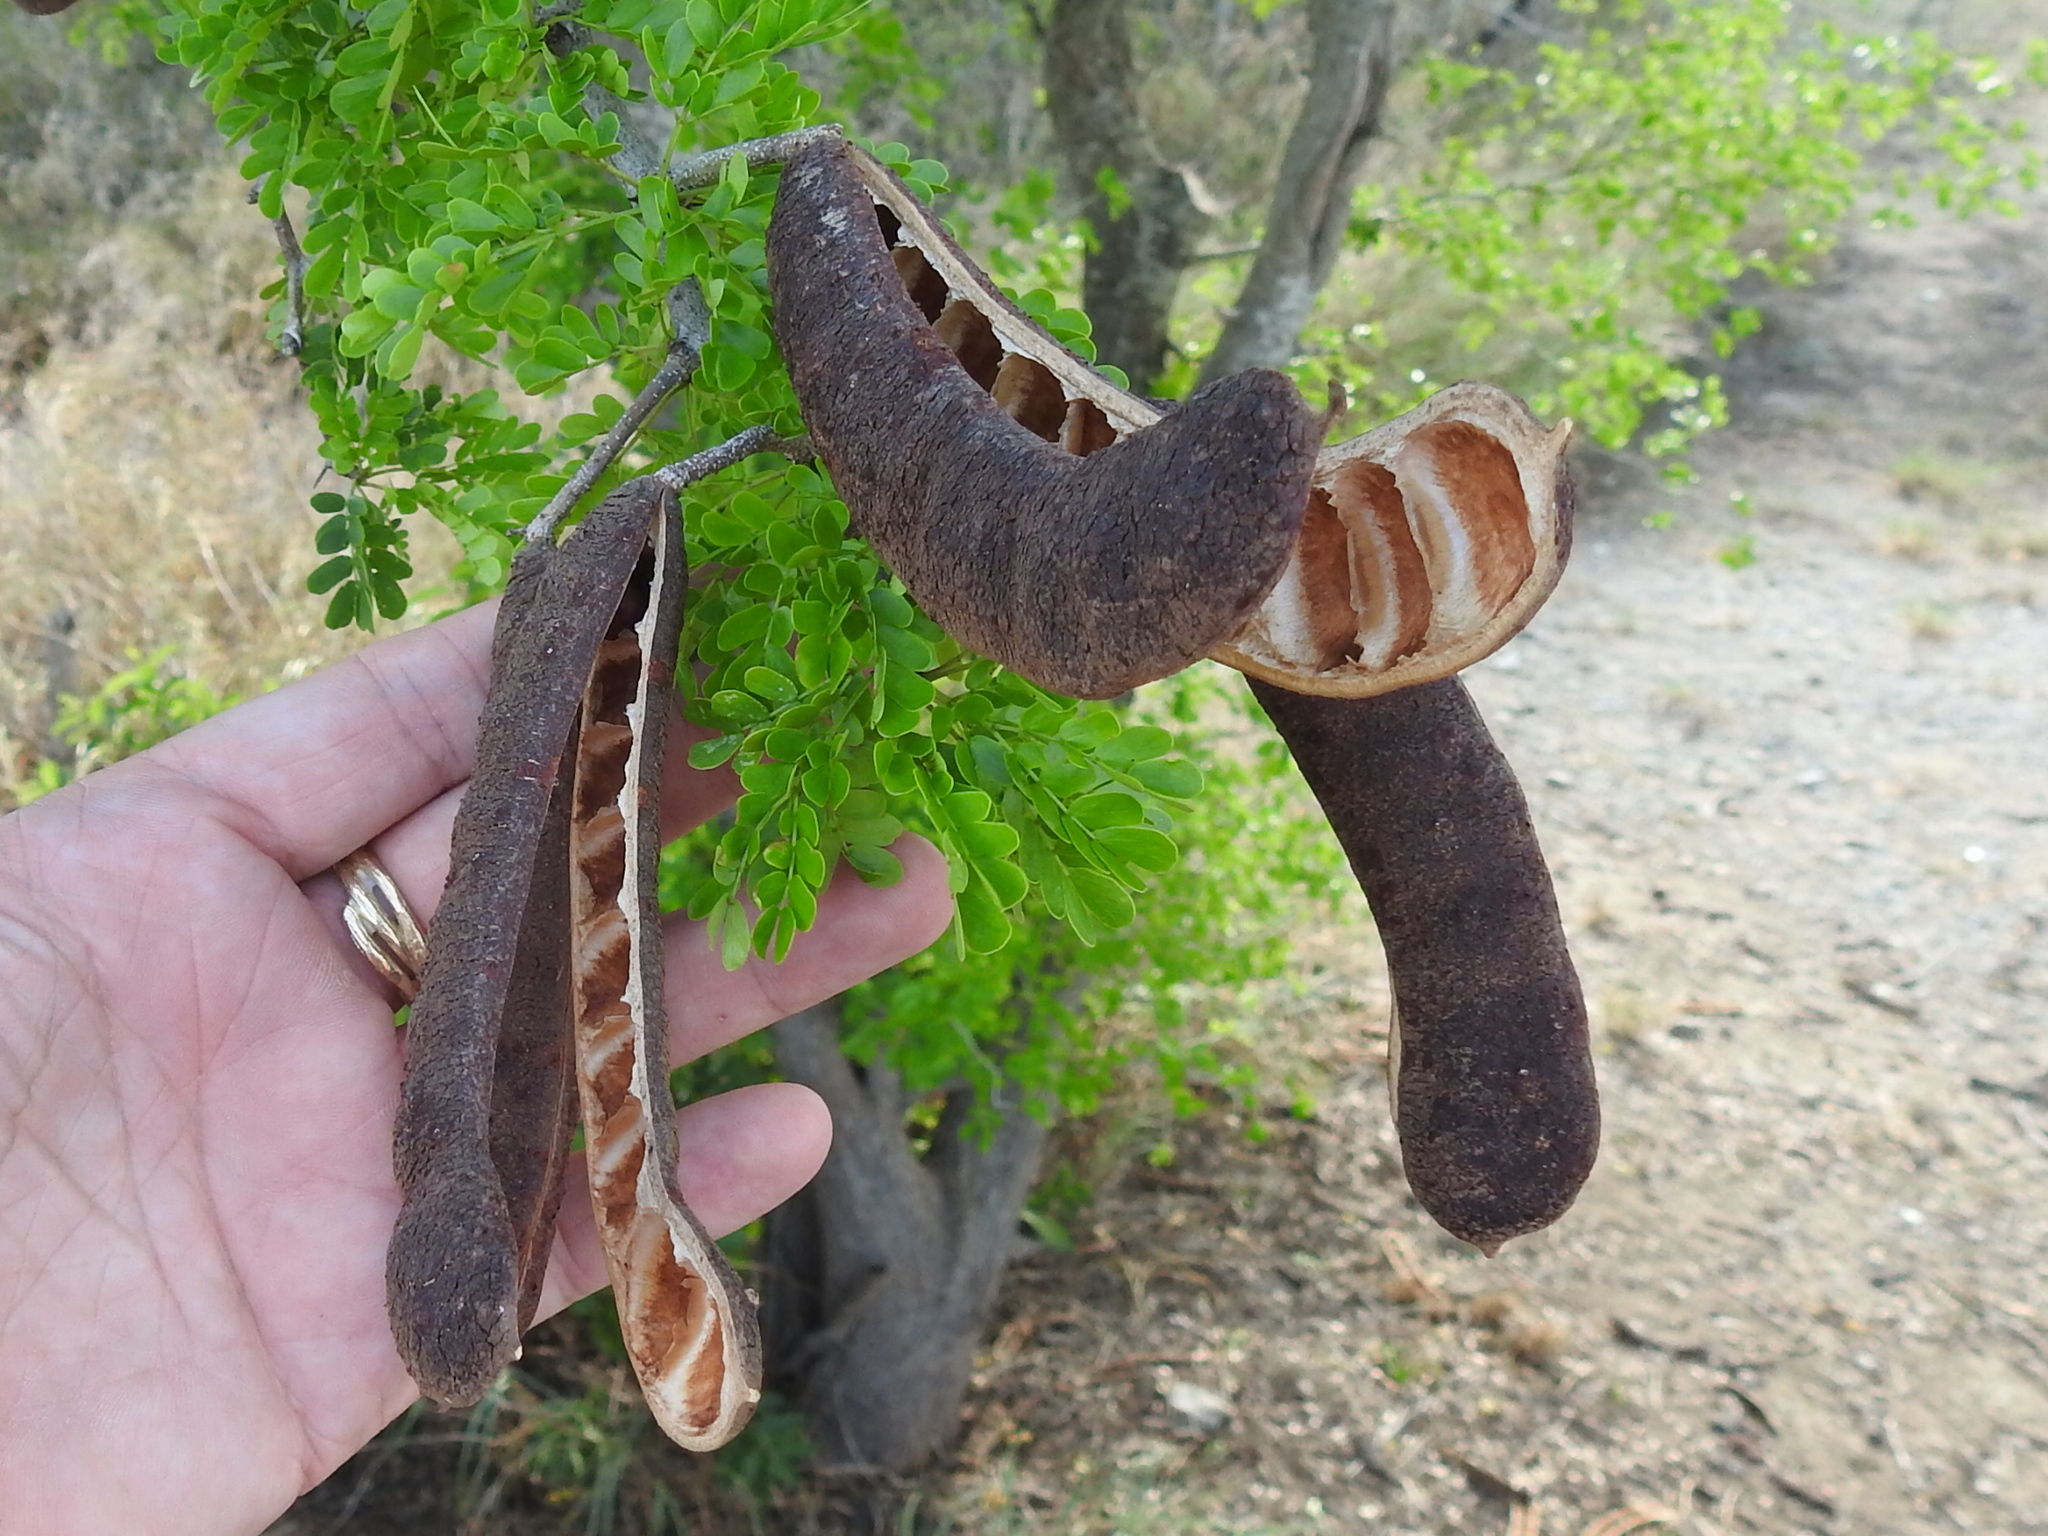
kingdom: Plantae
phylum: Tracheophyta
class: Magnoliopsida
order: Fabales
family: Fabaceae
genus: Ebenopsis
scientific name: Ebenopsis ebano
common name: Ebony blackbead
